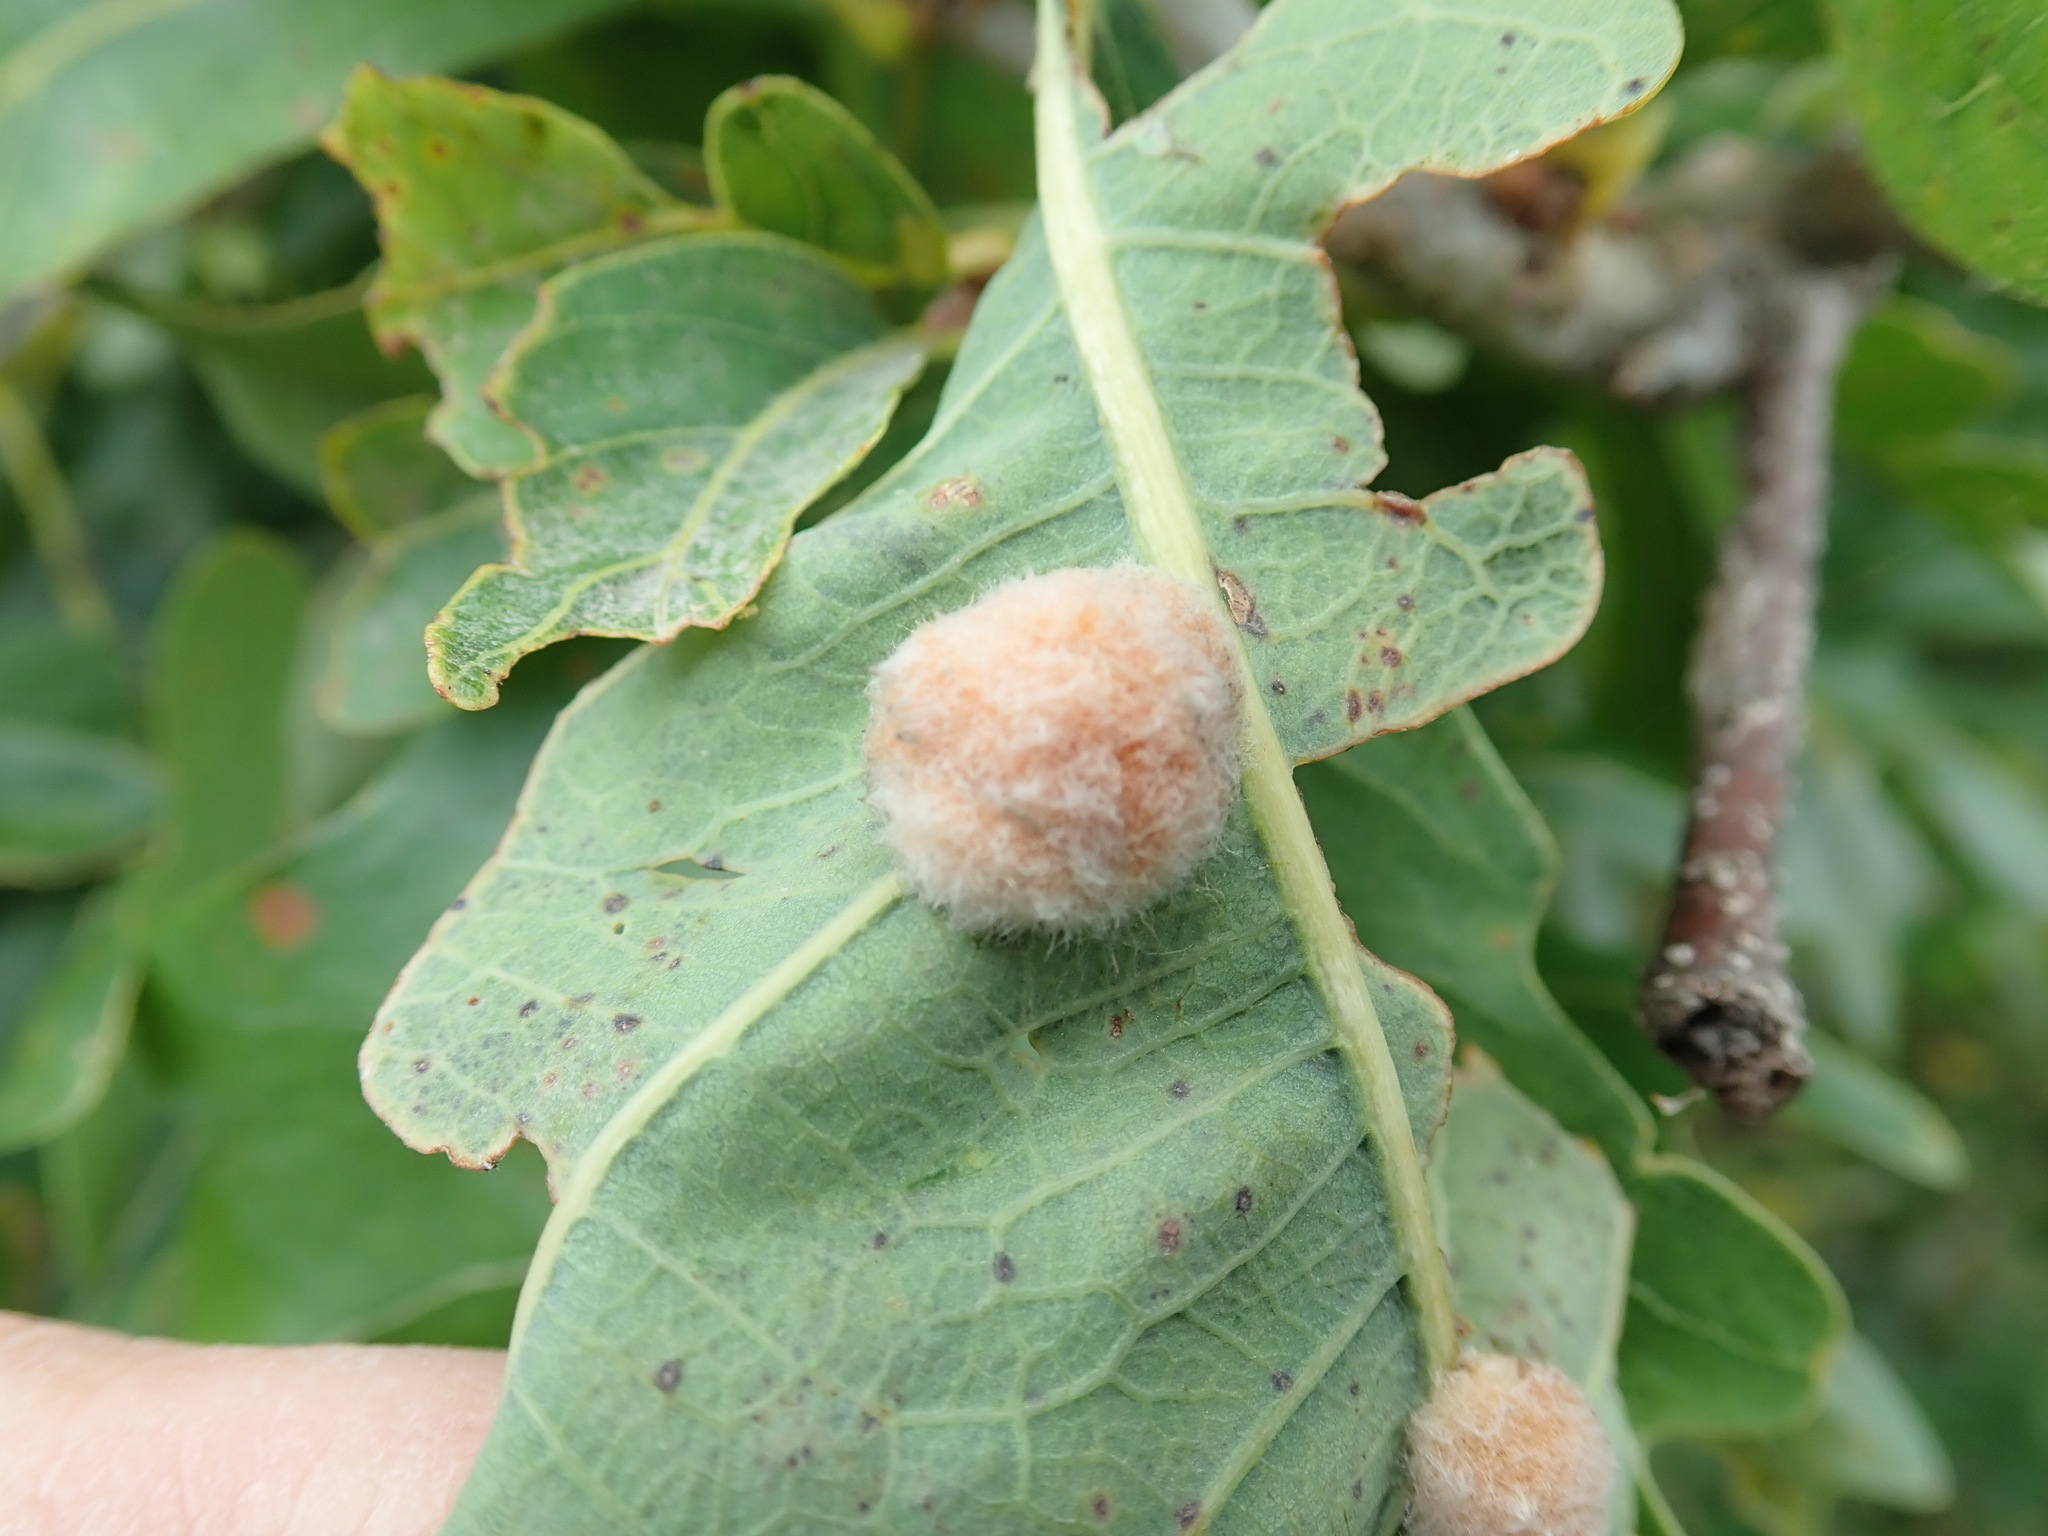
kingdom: Animalia
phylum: Arthropoda
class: Insecta
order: Hymenoptera
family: Cynipidae
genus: Andricus
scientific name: Andricus quercusflocci
